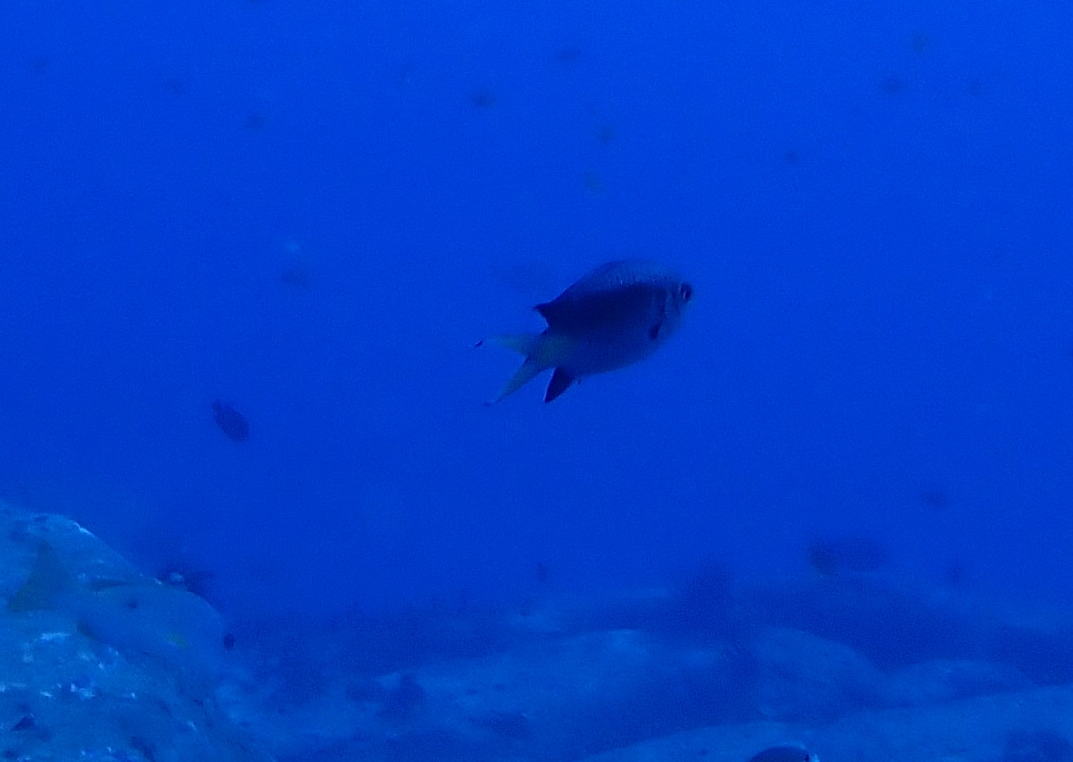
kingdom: Animalia
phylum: Chordata
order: Perciformes
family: Pomacentridae
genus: Chromis
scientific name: Chromis weberi
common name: Weber's chromis
